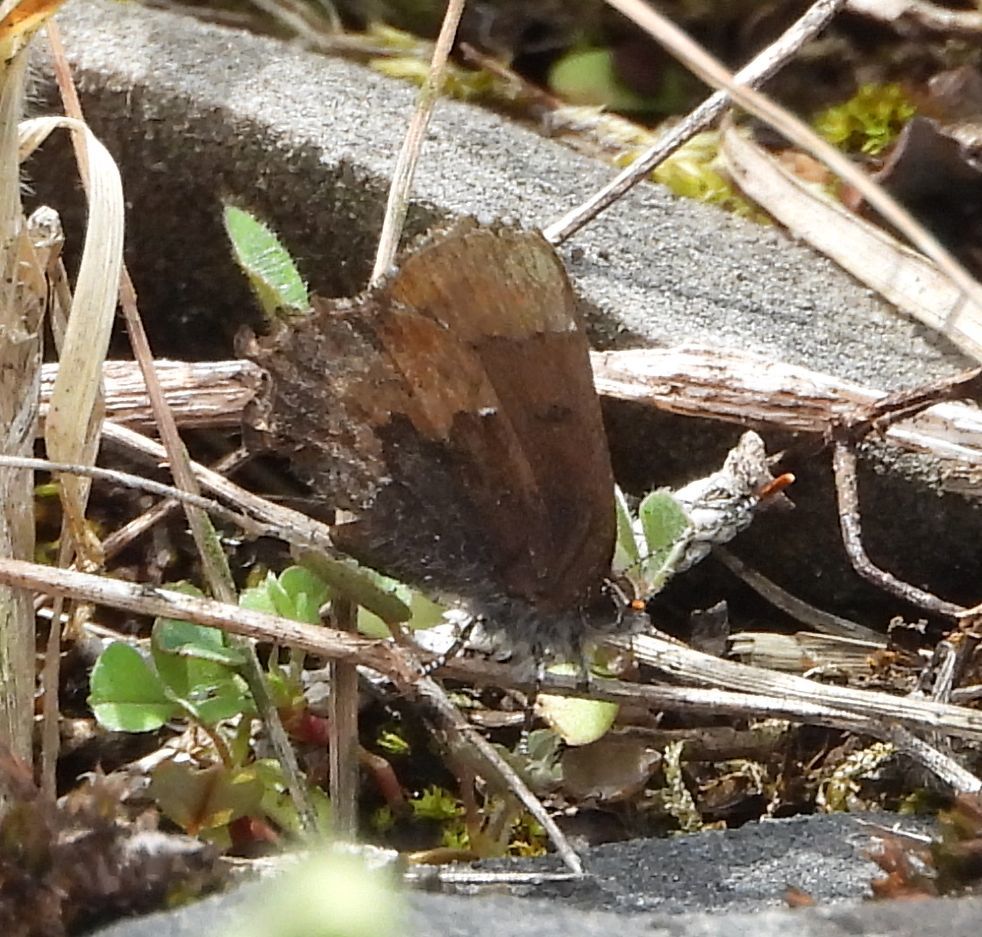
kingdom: Animalia
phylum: Arthropoda
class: Insecta
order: Lepidoptera
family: Lycaenidae
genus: Incisalia
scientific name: Incisalia henrici
